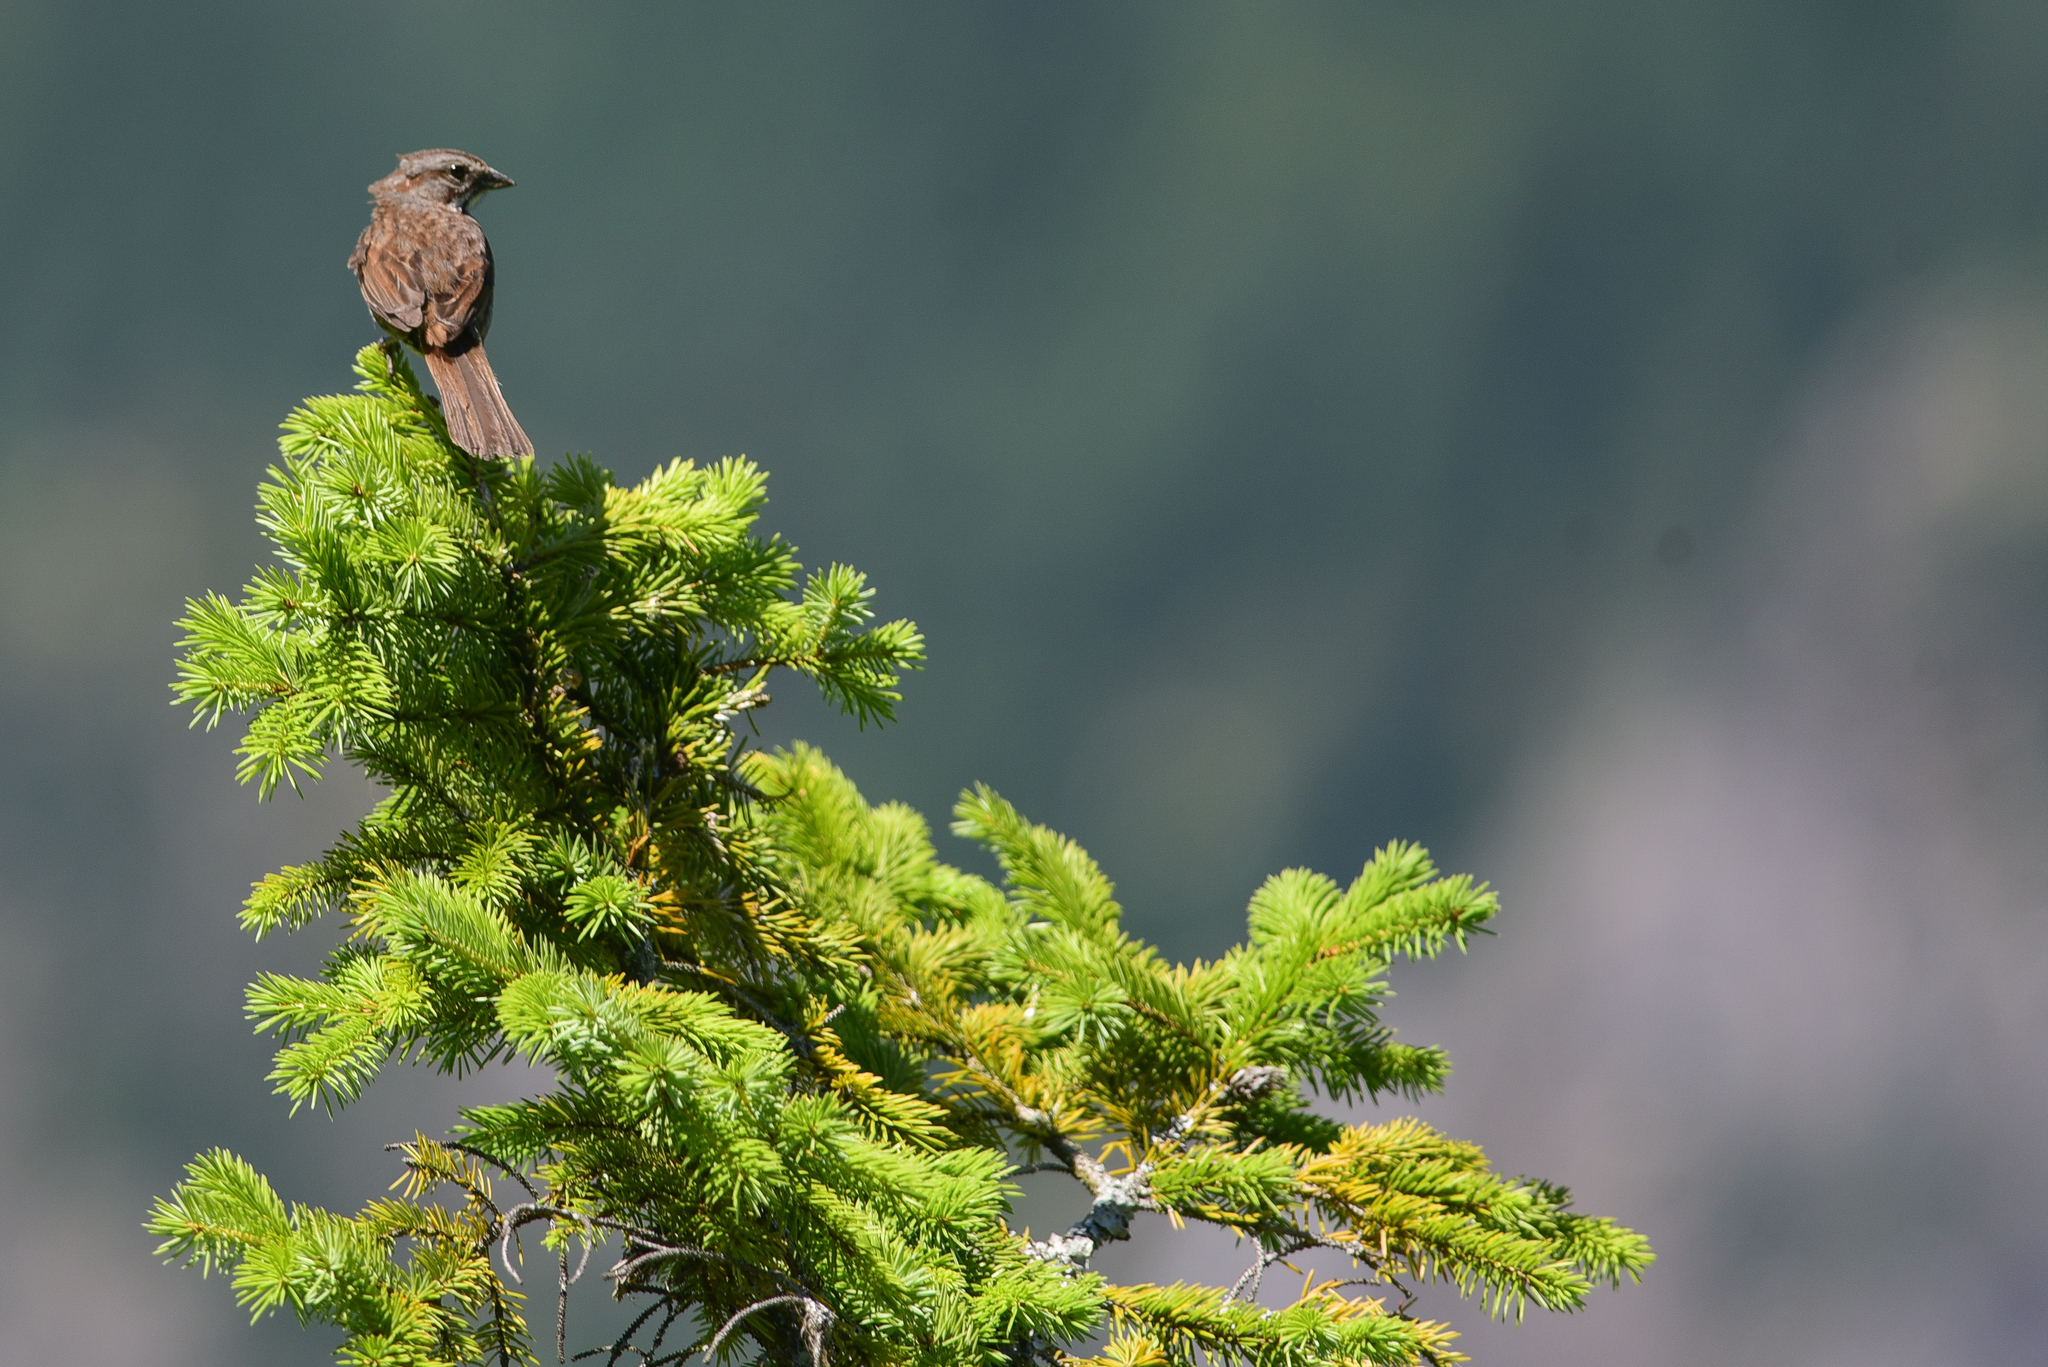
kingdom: Animalia
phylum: Chordata
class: Aves
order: Passeriformes
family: Passerellidae
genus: Melospiza
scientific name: Melospiza melodia
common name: Song sparrow
